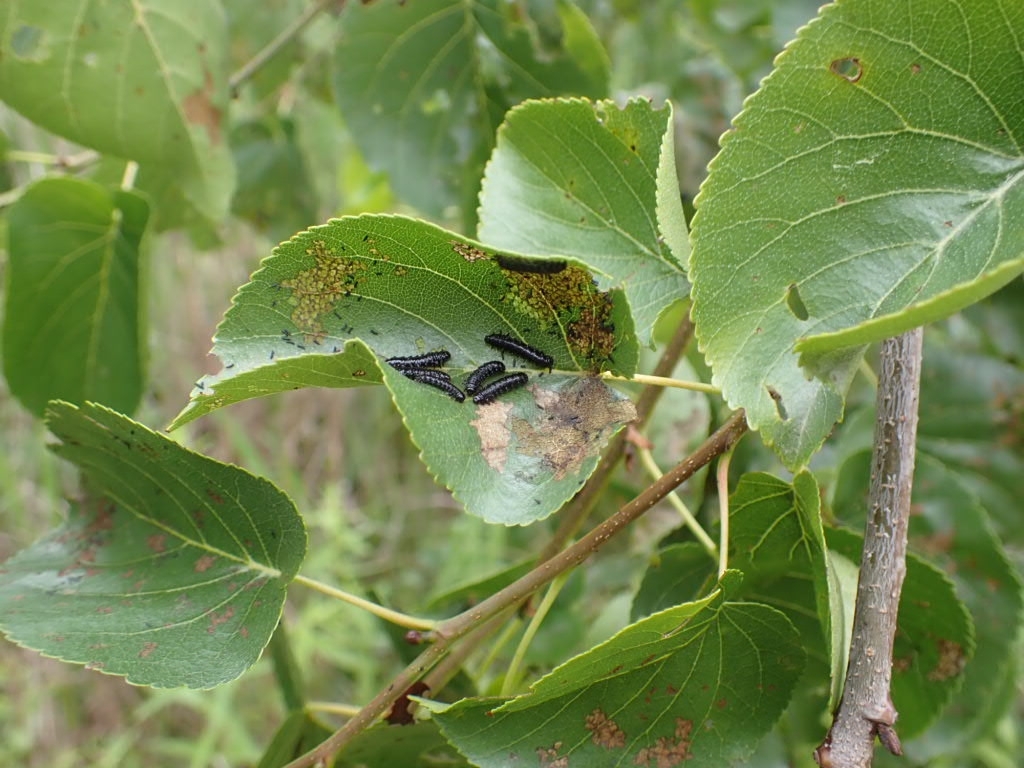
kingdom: Animalia
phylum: Arthropoda
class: Insecta
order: Coleoptera
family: Chrysomelidae
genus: Agelastica
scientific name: Agelastica alni
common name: Alder leaf beetle
